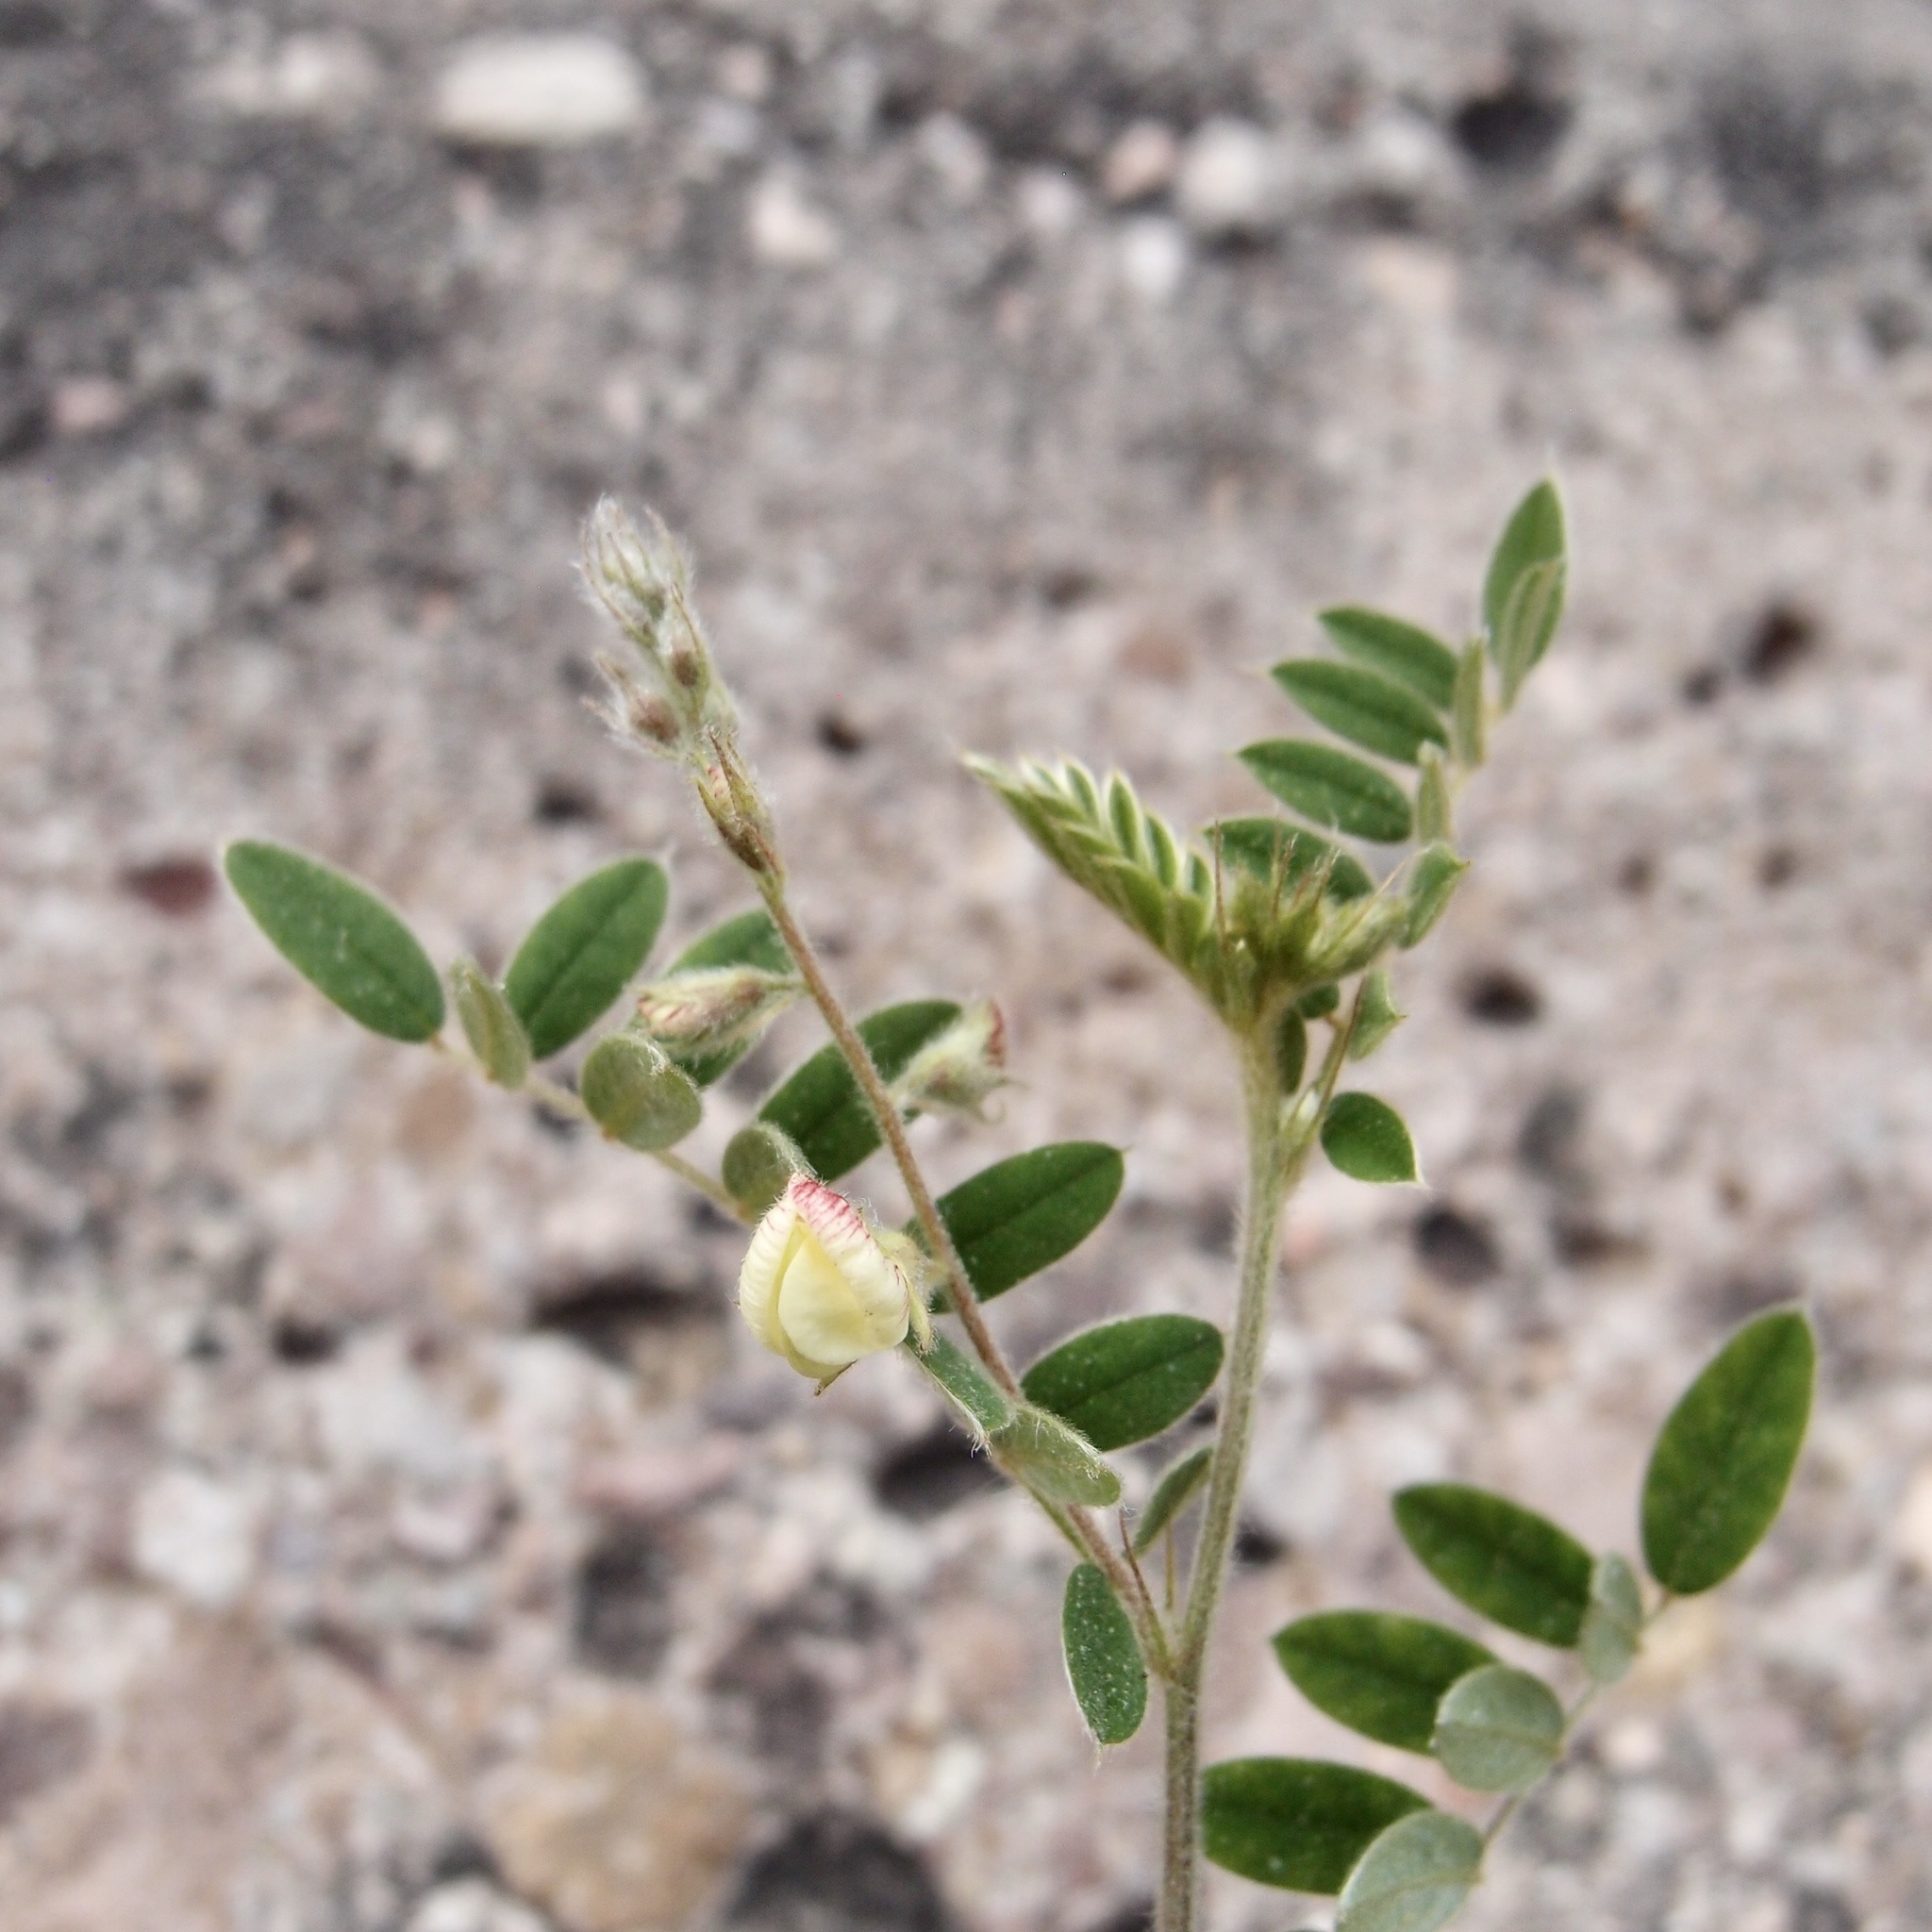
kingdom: Plantae
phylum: Tracheophyta
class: Magnoliopsida
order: Fabales
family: Fabaceae
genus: Coursetia
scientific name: Coursetia caribaea
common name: Anil falso
